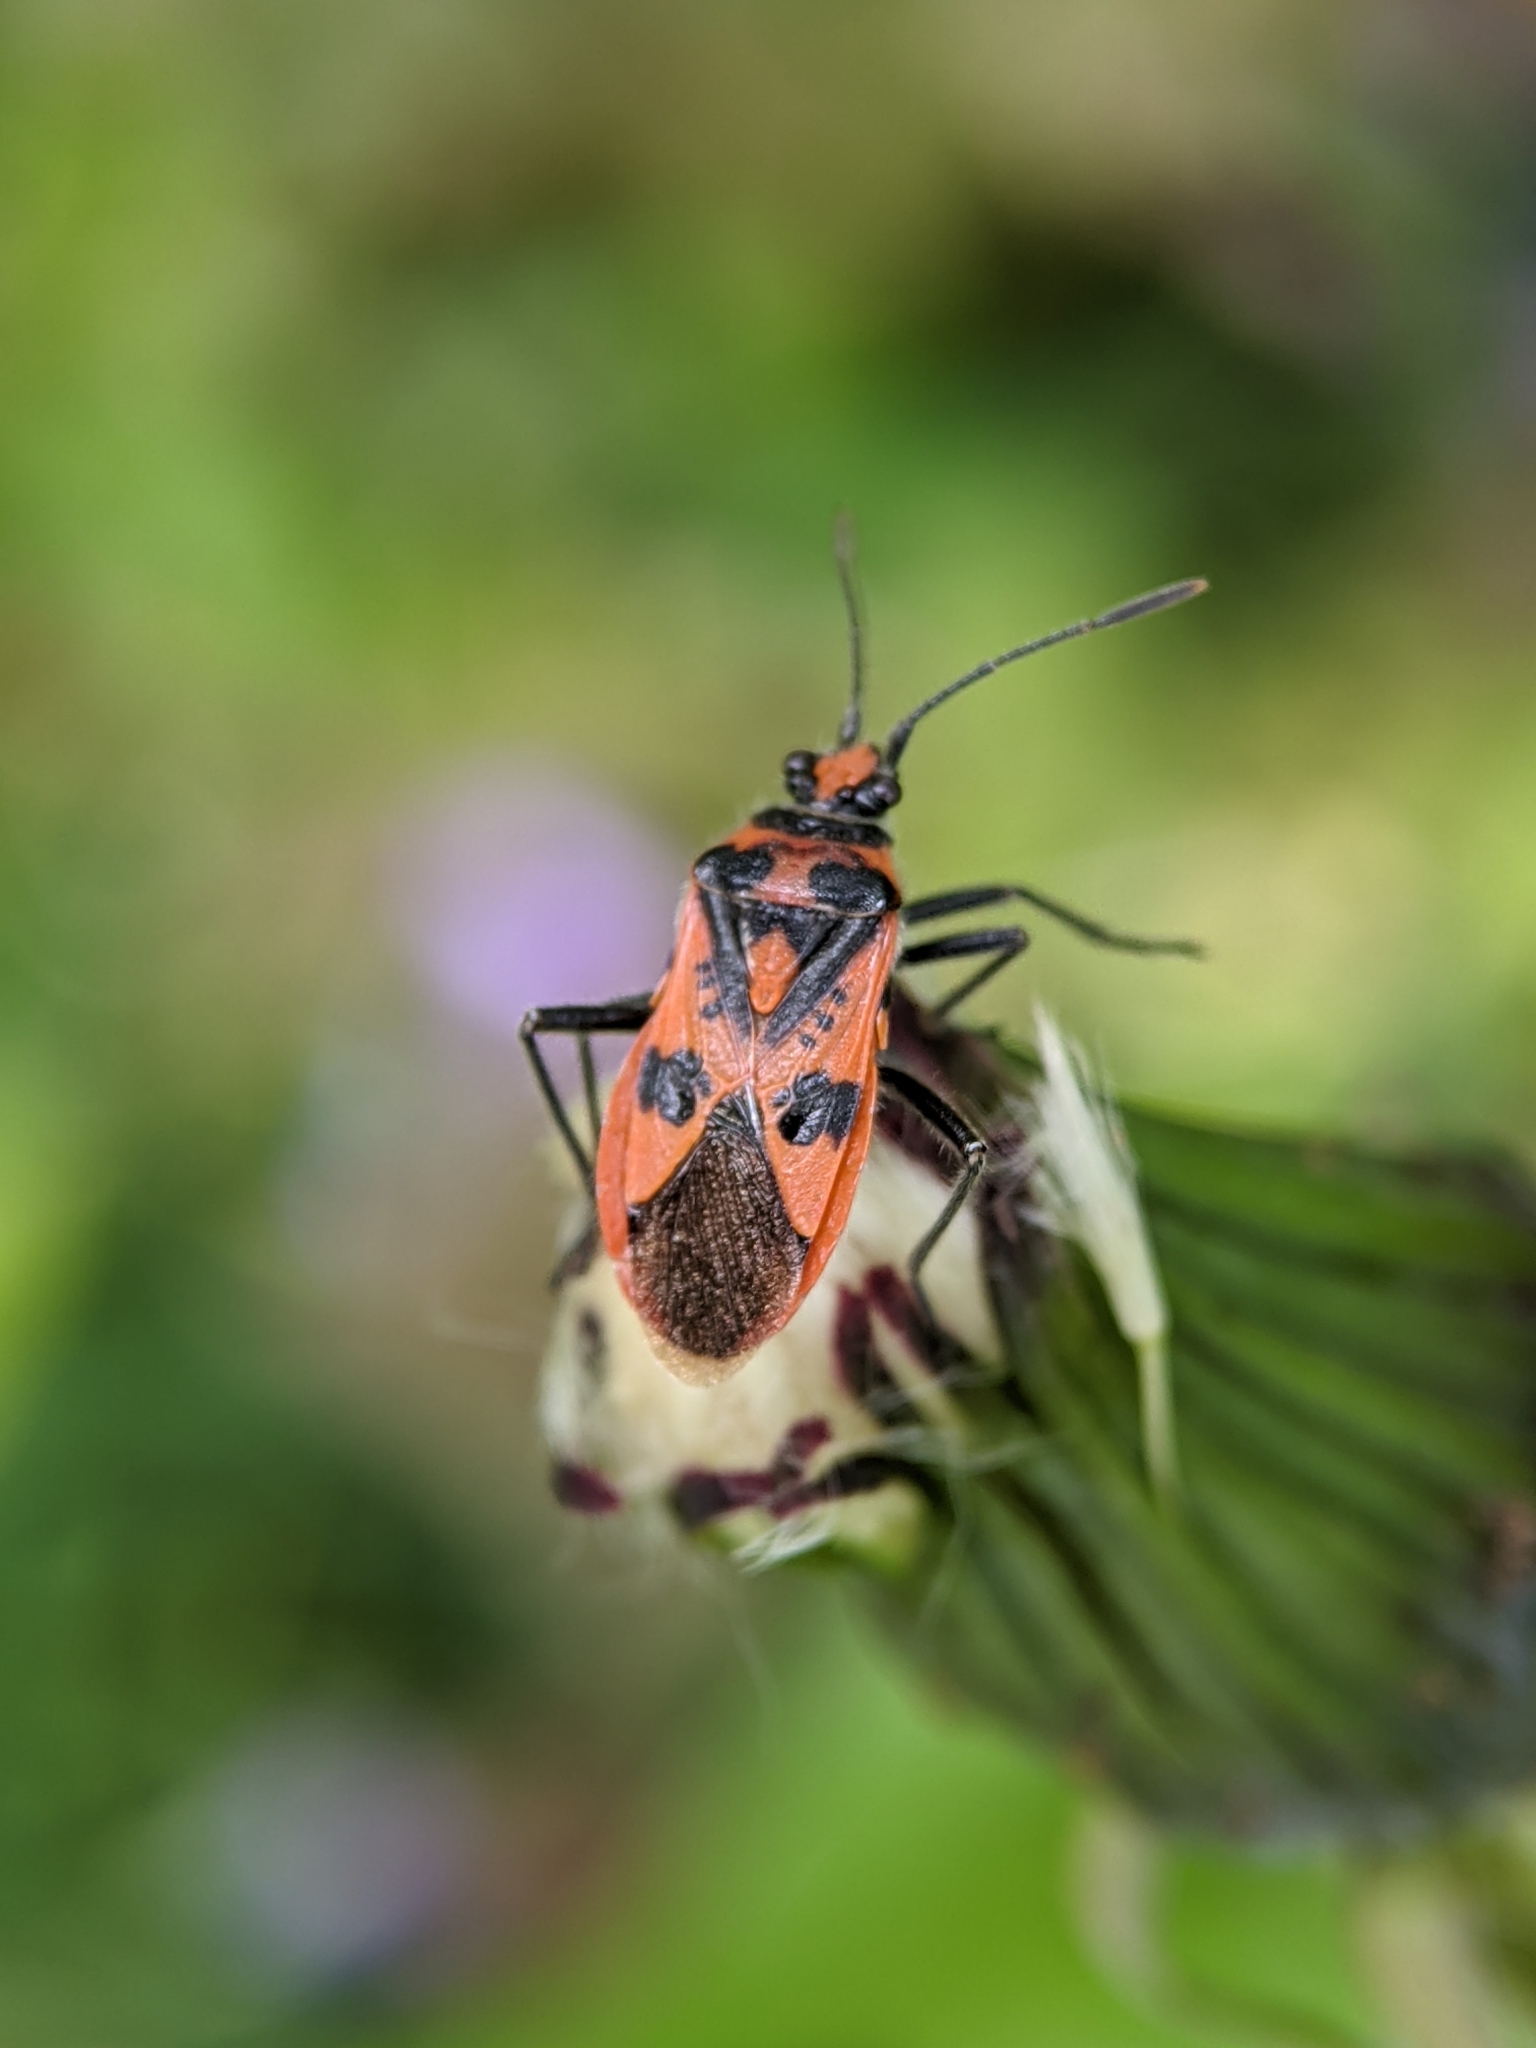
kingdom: Animalia
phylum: Arthropoda
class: Insecta
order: Hemiptera
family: Rhopalidae
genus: Corizus
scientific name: Corizus hyoscyami
